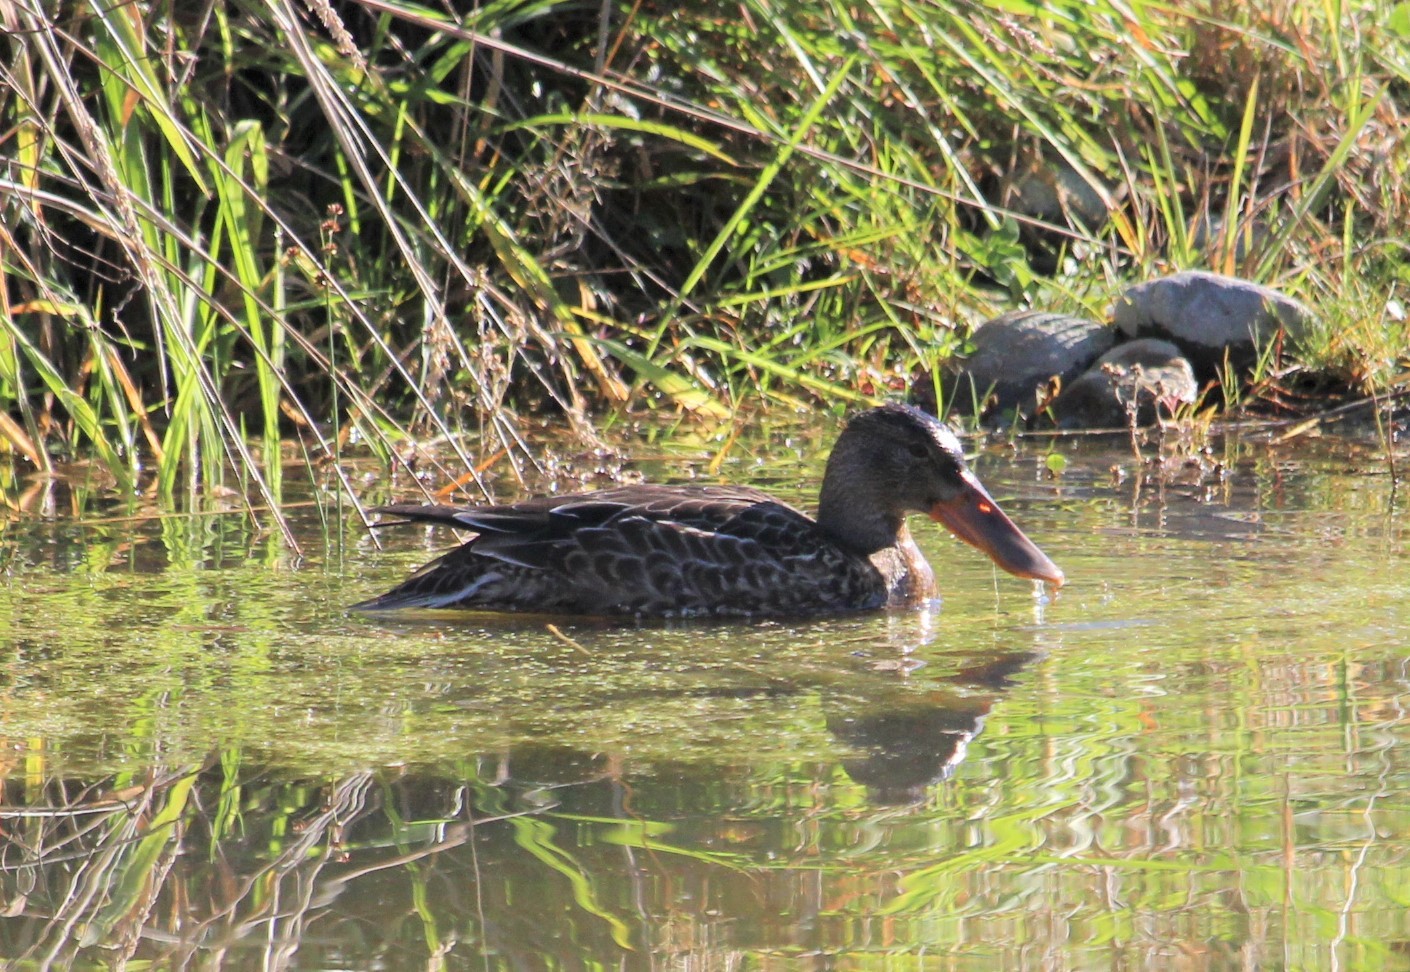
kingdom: Animalia
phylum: Chordata
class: Aves
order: Anseriformes
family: Anatidae
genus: Spatula
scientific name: Spatula clypeata
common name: Northern shoveler
